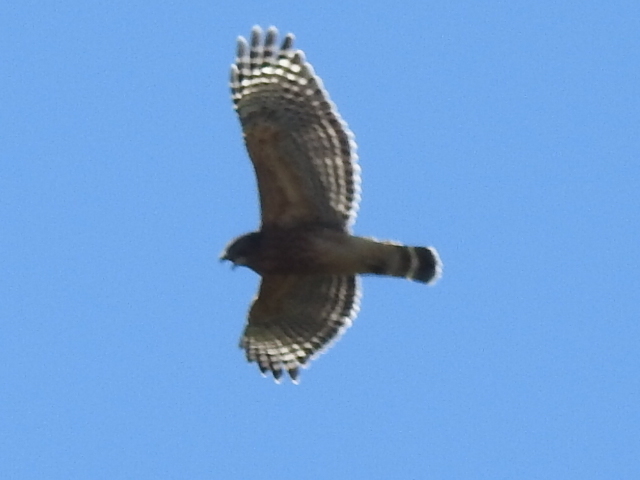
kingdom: Animalia
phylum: Chordata
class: Aves
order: Accipitriformes
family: Accipitridae
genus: Buteo
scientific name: Buteo lineatus
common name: Red-shouldered hawk
